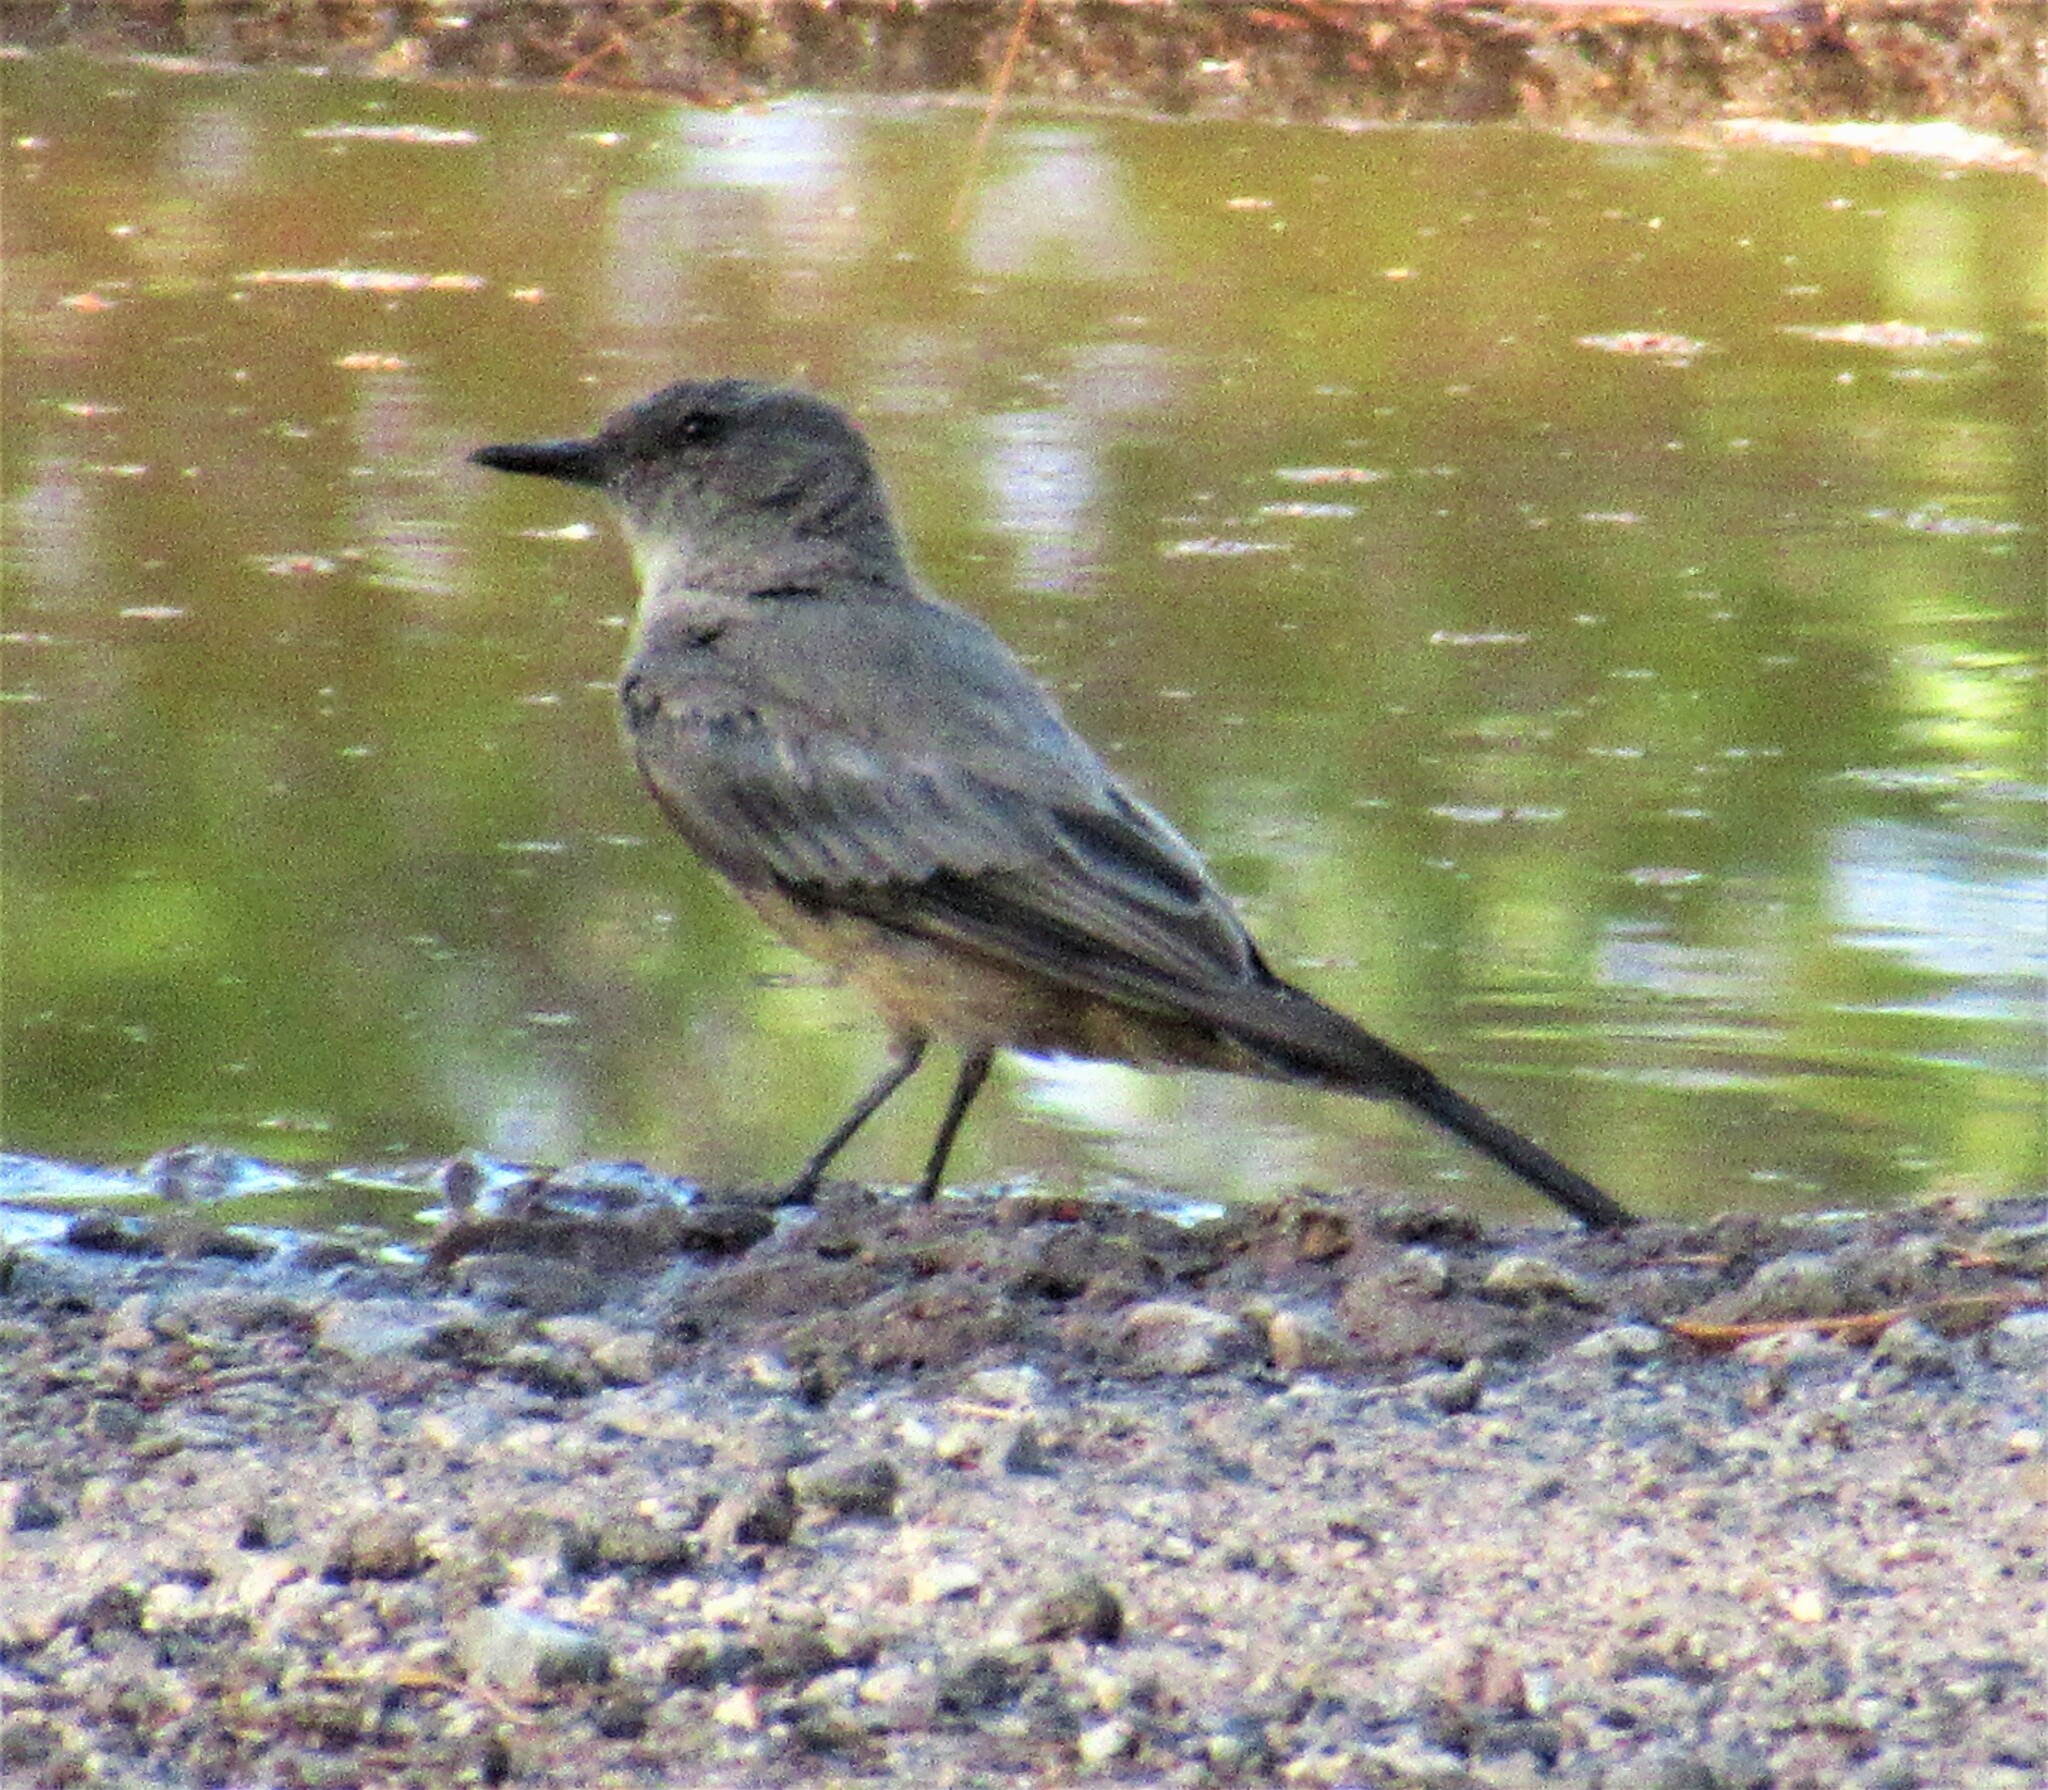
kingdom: Animalia
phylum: Chordata
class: Aves
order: Passeriformes
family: Tyrannidae
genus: Sayornis
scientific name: Sayornis saya
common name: Say's phoebe
